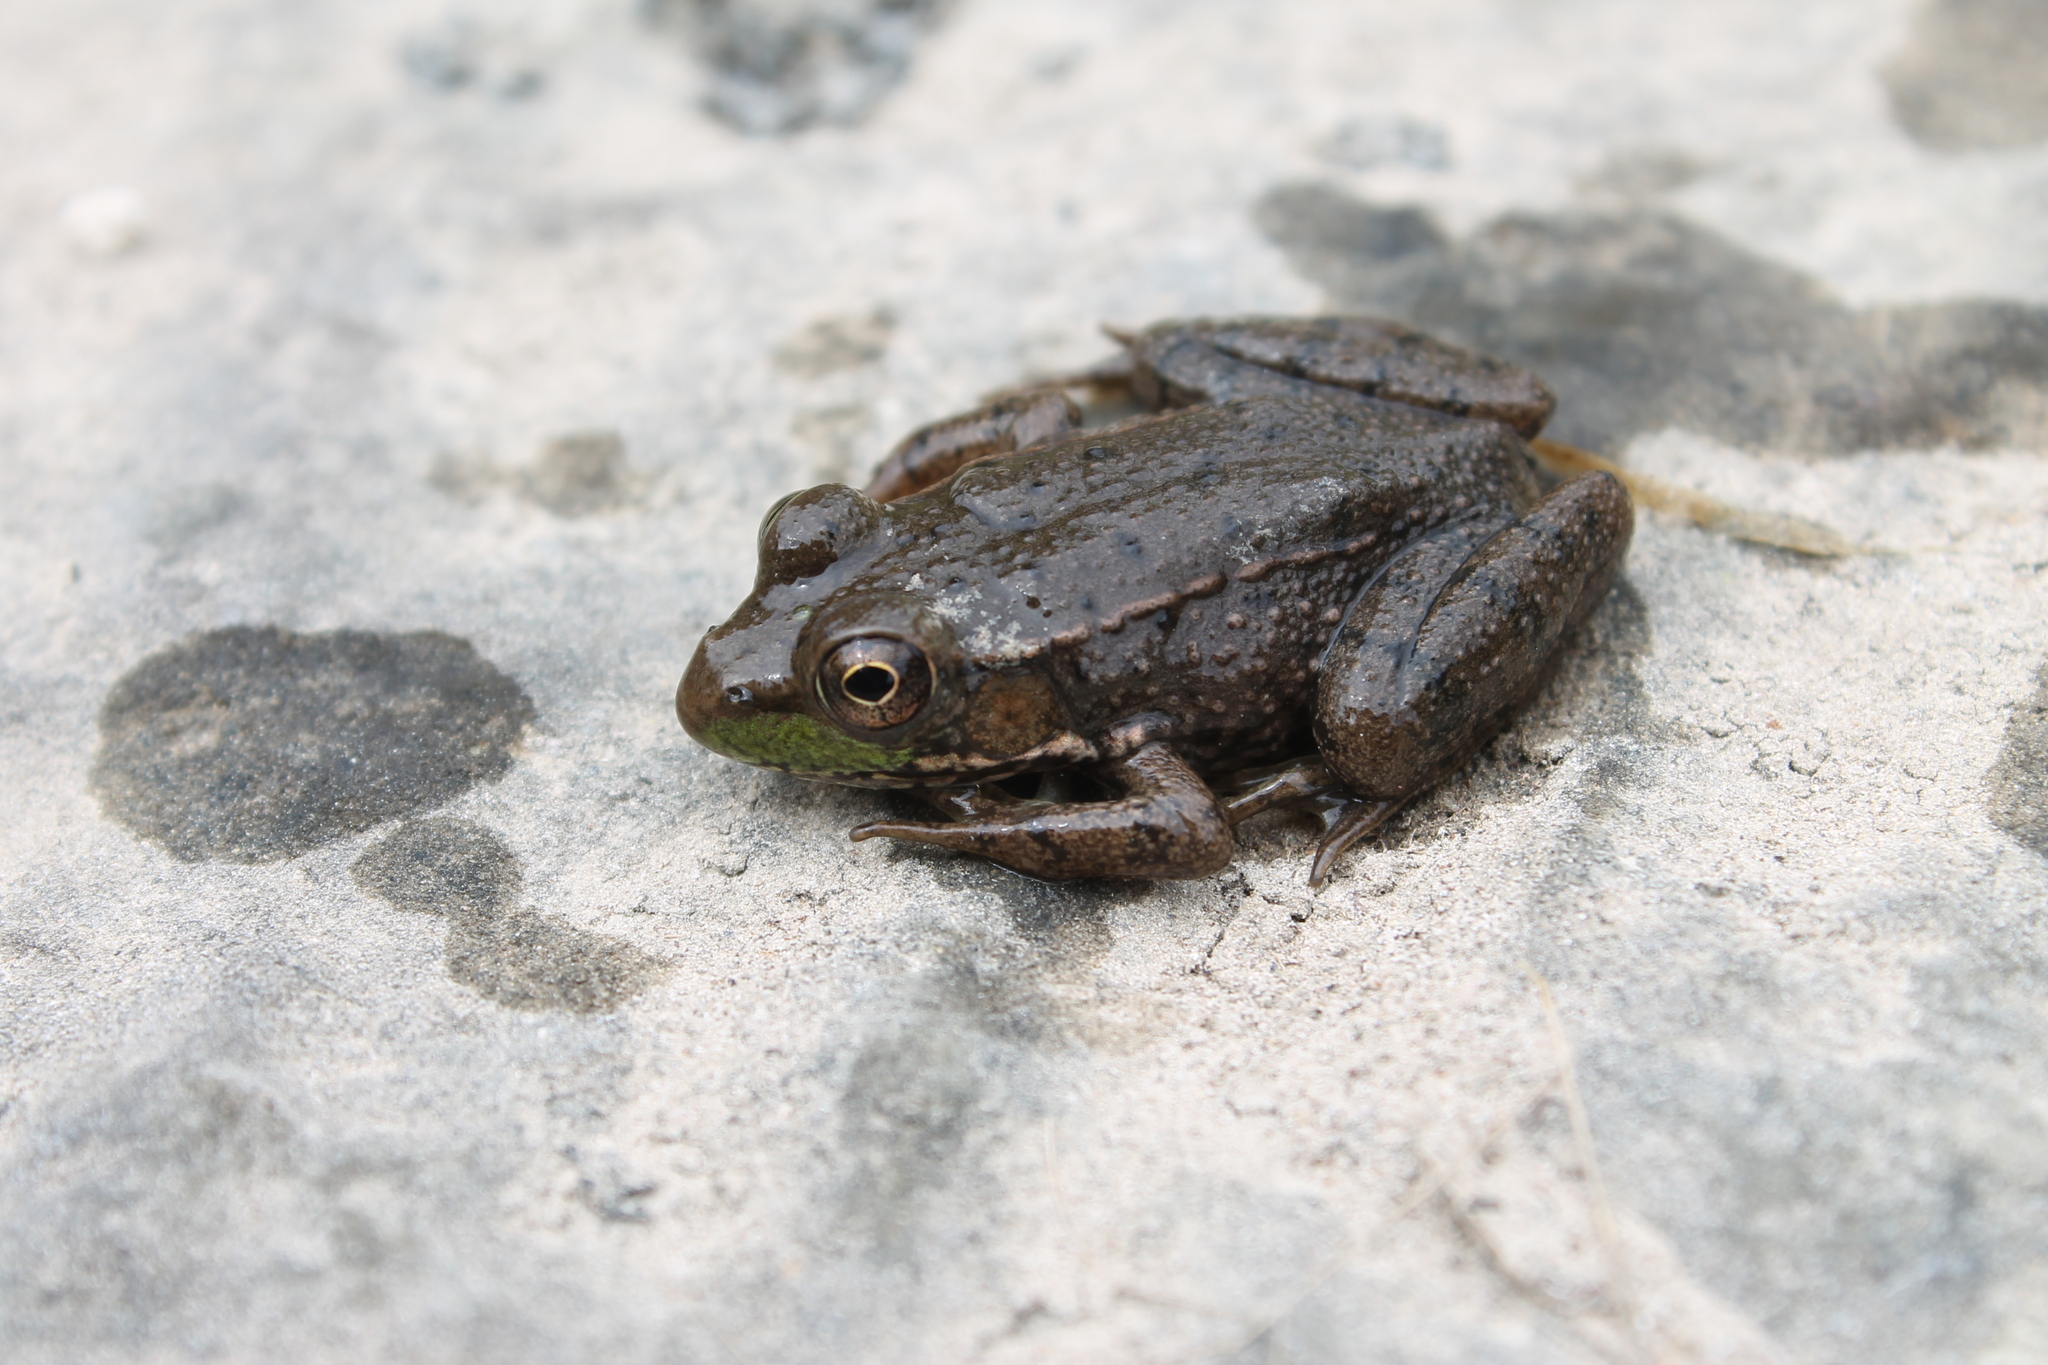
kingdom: Animalia
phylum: Chordata
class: Amphibia
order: Anura
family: Ranidae
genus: Lithobates
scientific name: Lithobates clamitans
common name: Green frog
